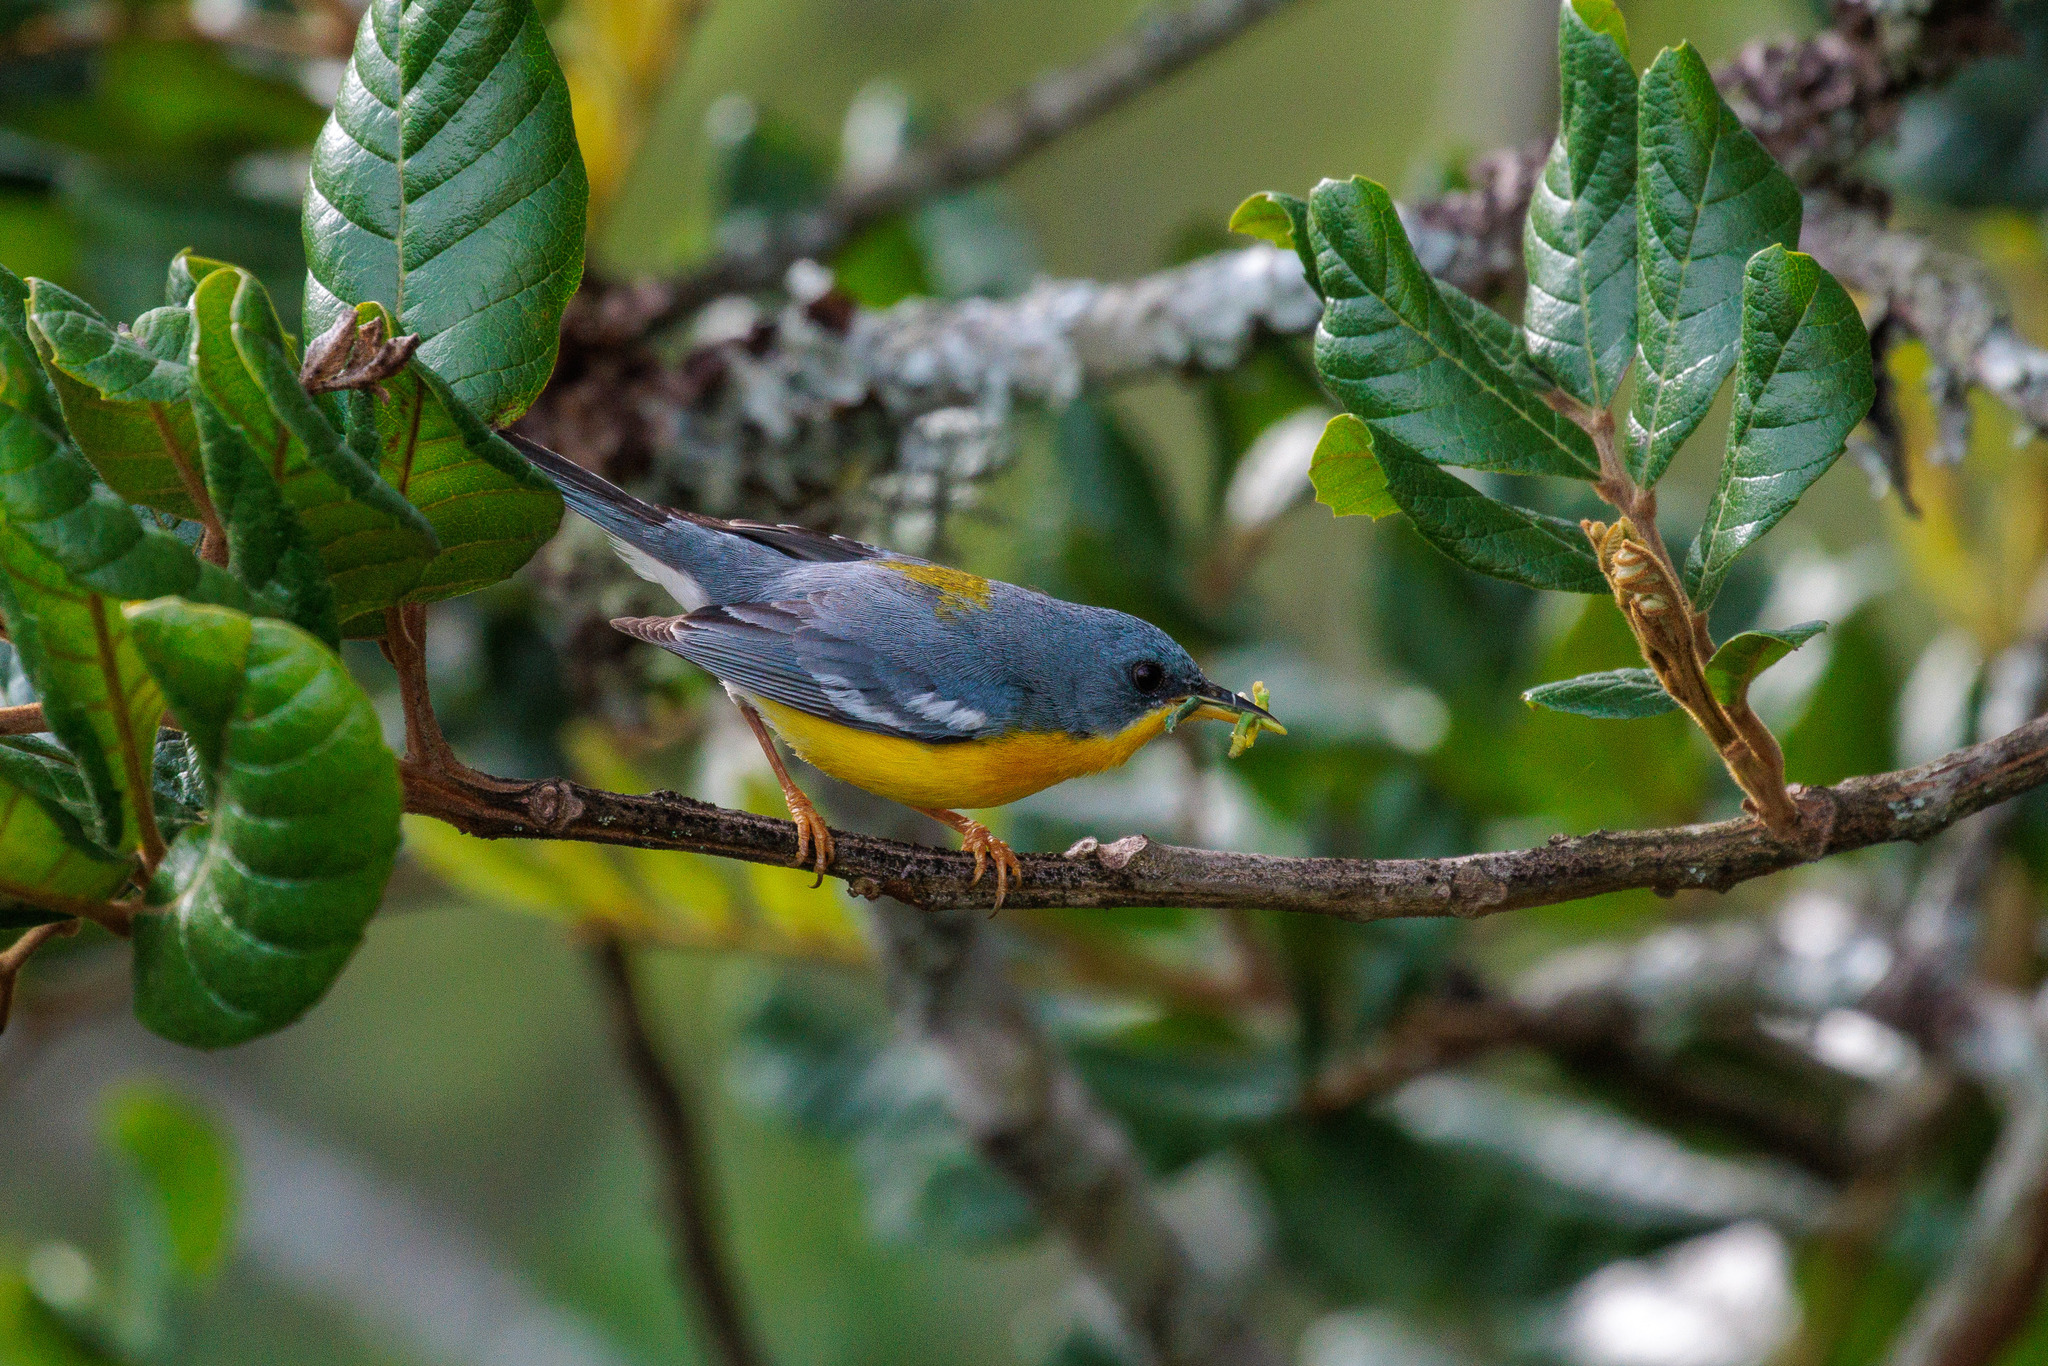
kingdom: Animalia
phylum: Chordata
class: Aves
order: Passeriformes
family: Parulidae
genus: Setophaga
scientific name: Setophaga pitiayumi
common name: Tropical parula
